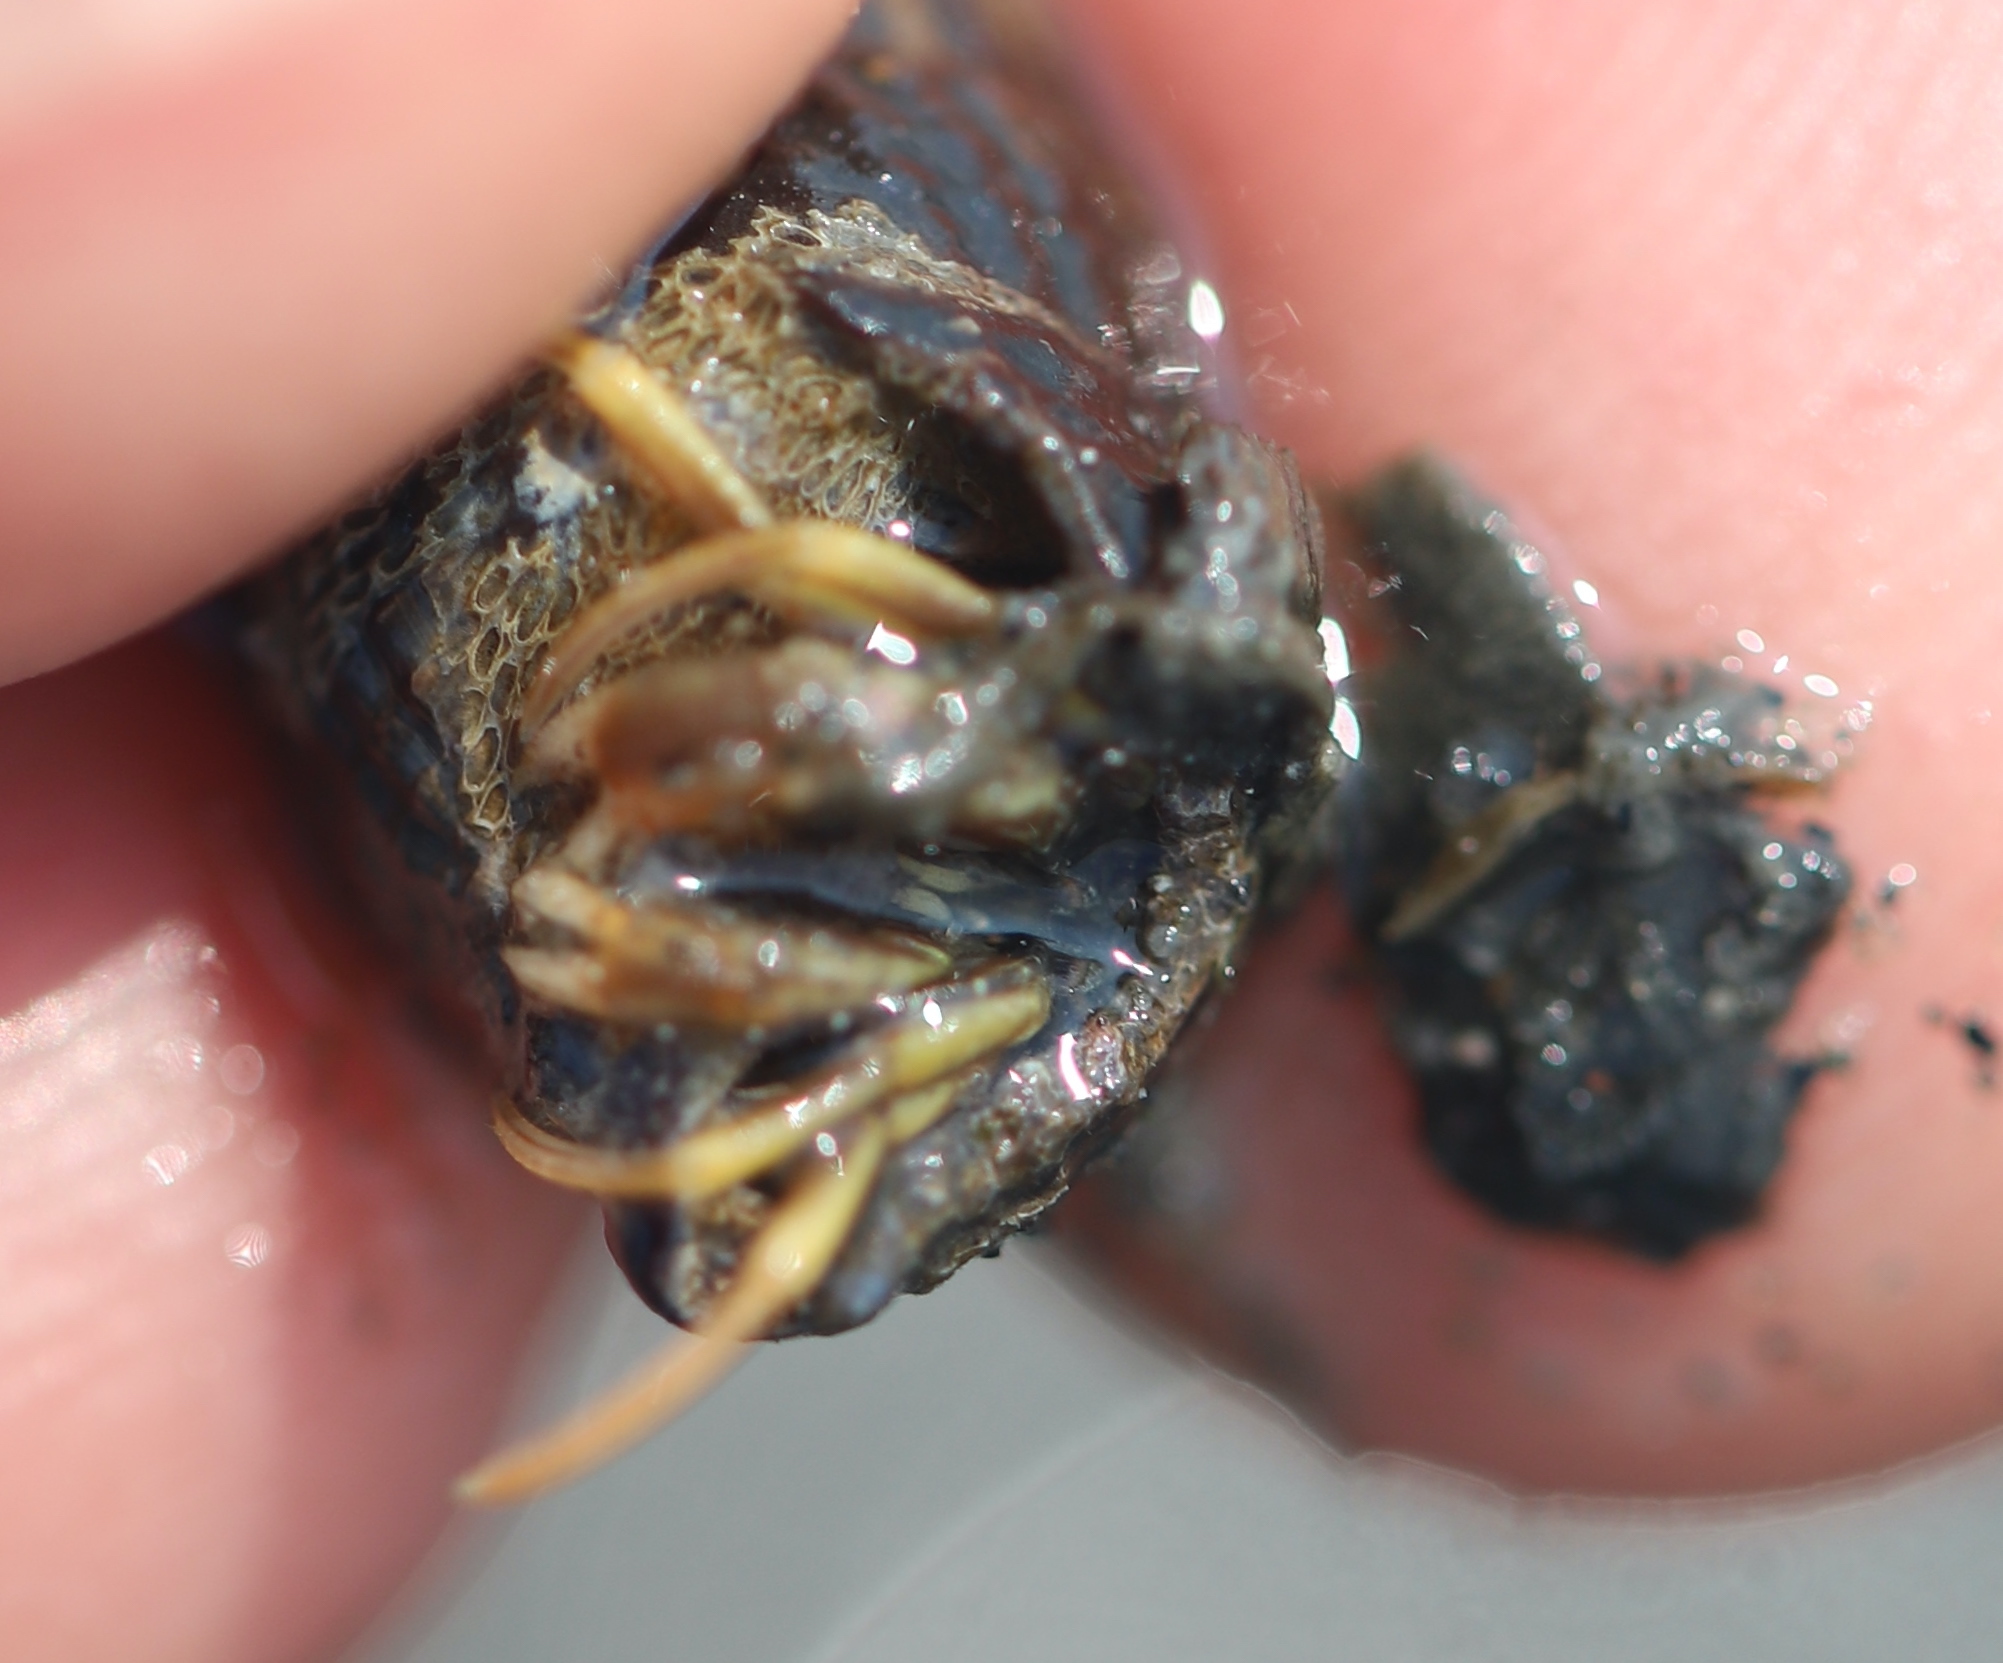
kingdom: Animalia
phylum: Arthropoda
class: Malacostraca
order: Decapoda
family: Paguridae
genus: Pagurus
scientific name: Pagurus longicarpus
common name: Long-armed hermit crab
